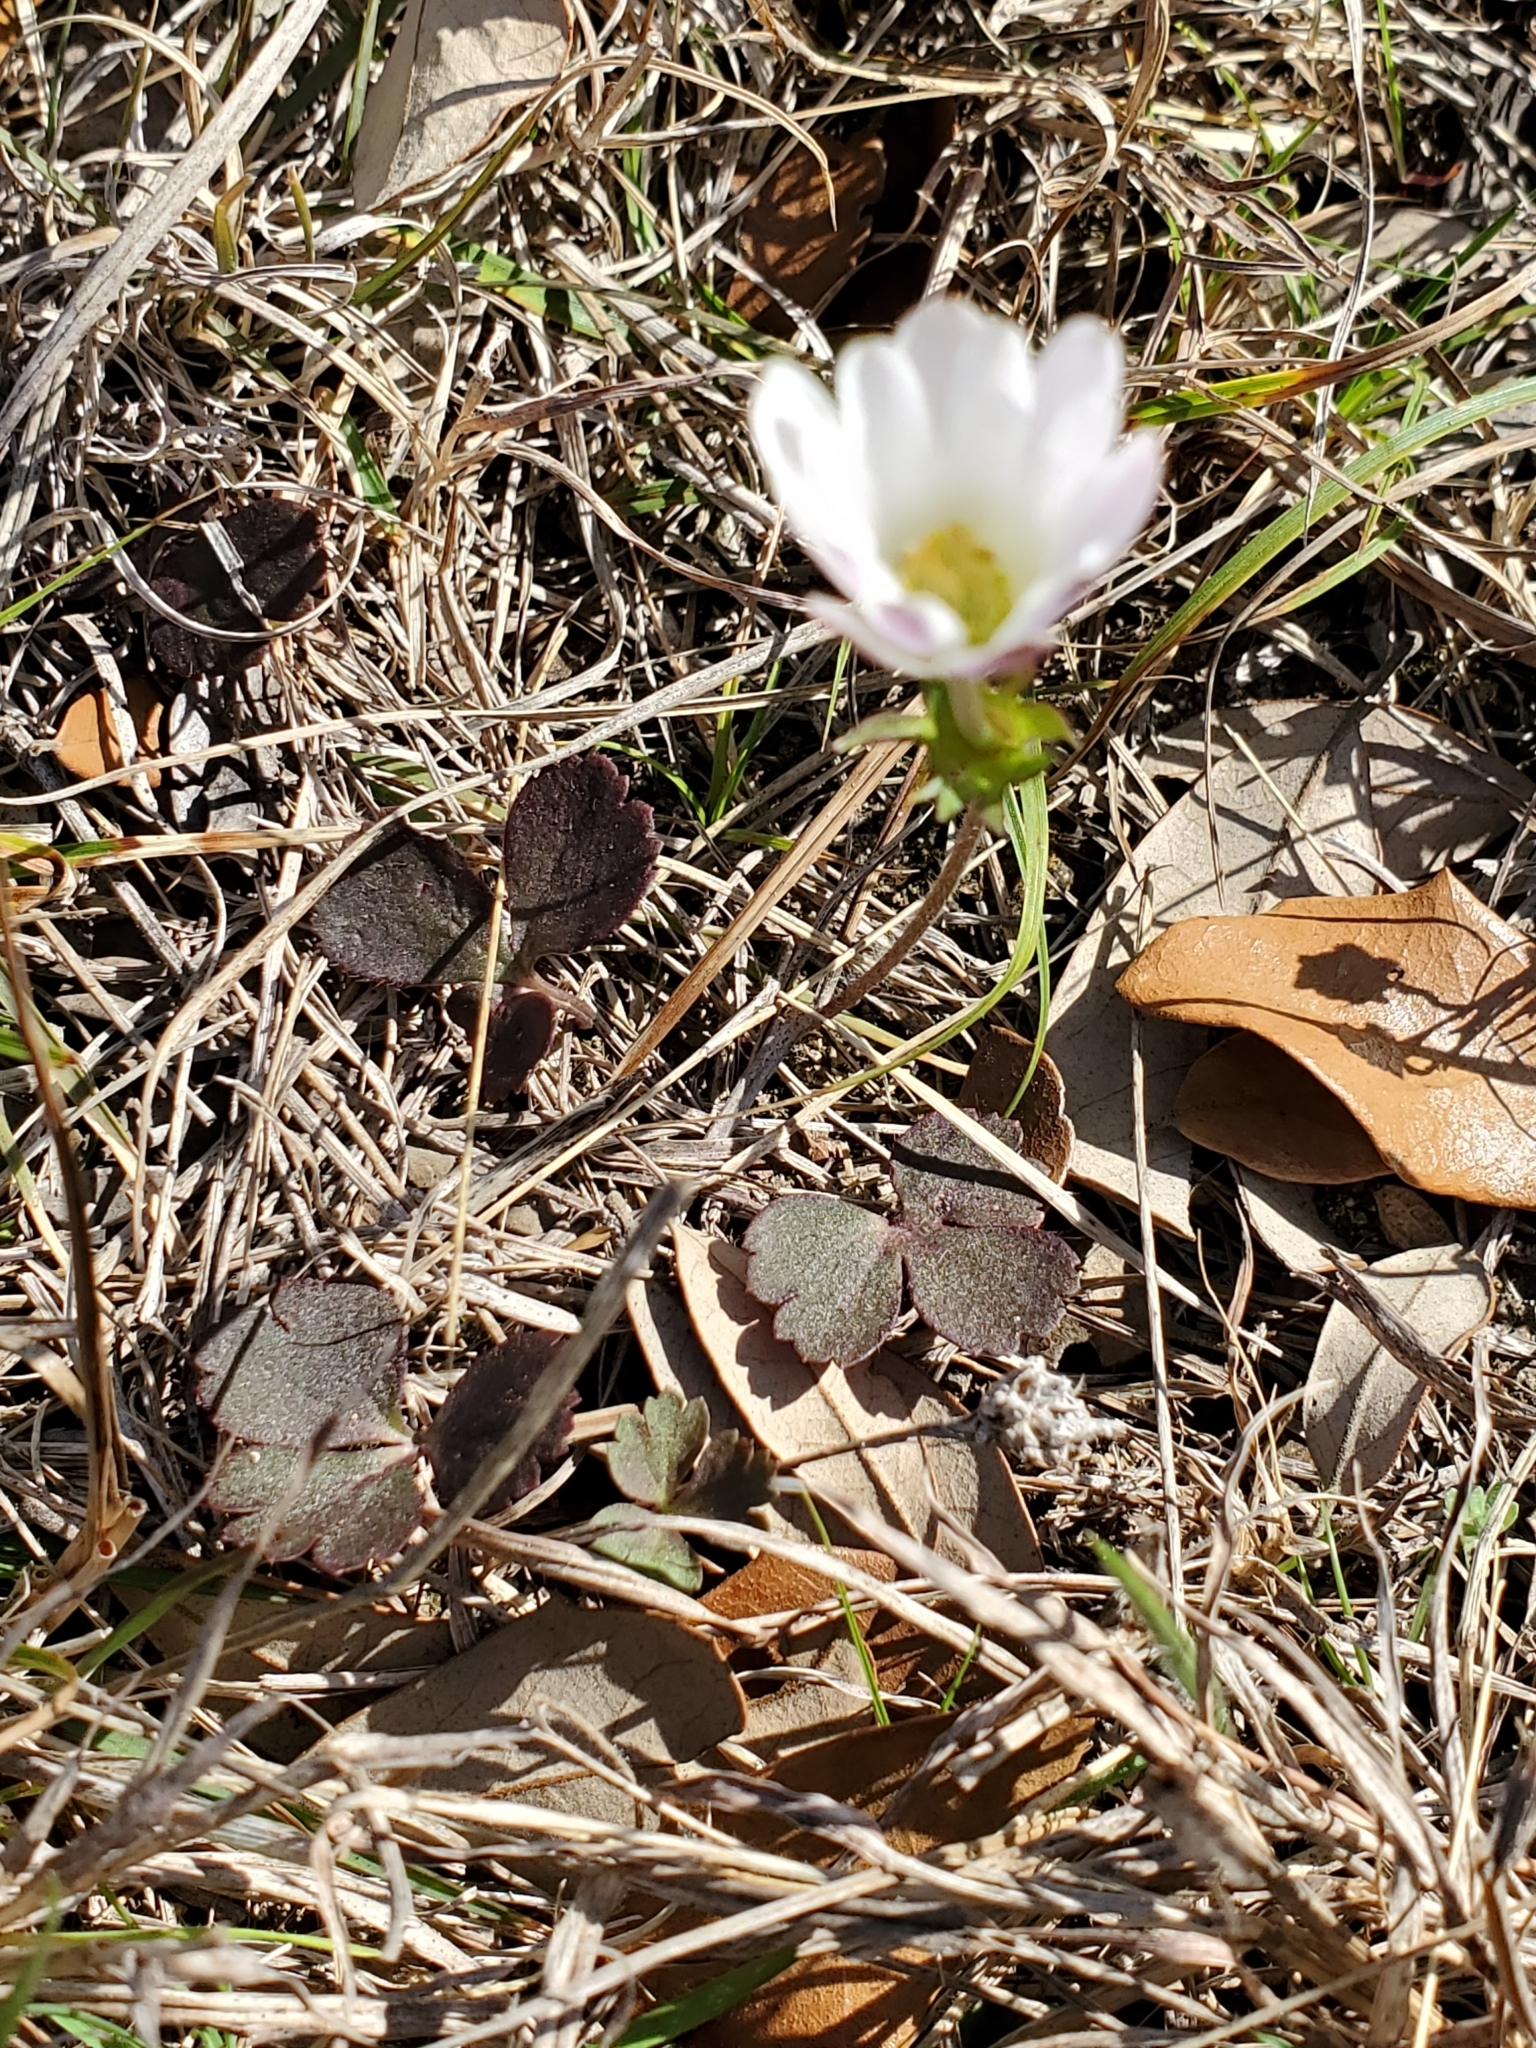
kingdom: Plantae
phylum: Tracheophyta
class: Magnoliopsida
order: Ranunculales
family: Ranunculaceae
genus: Anemone
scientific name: Anemone berlandieri
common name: Ten-petal anemone
